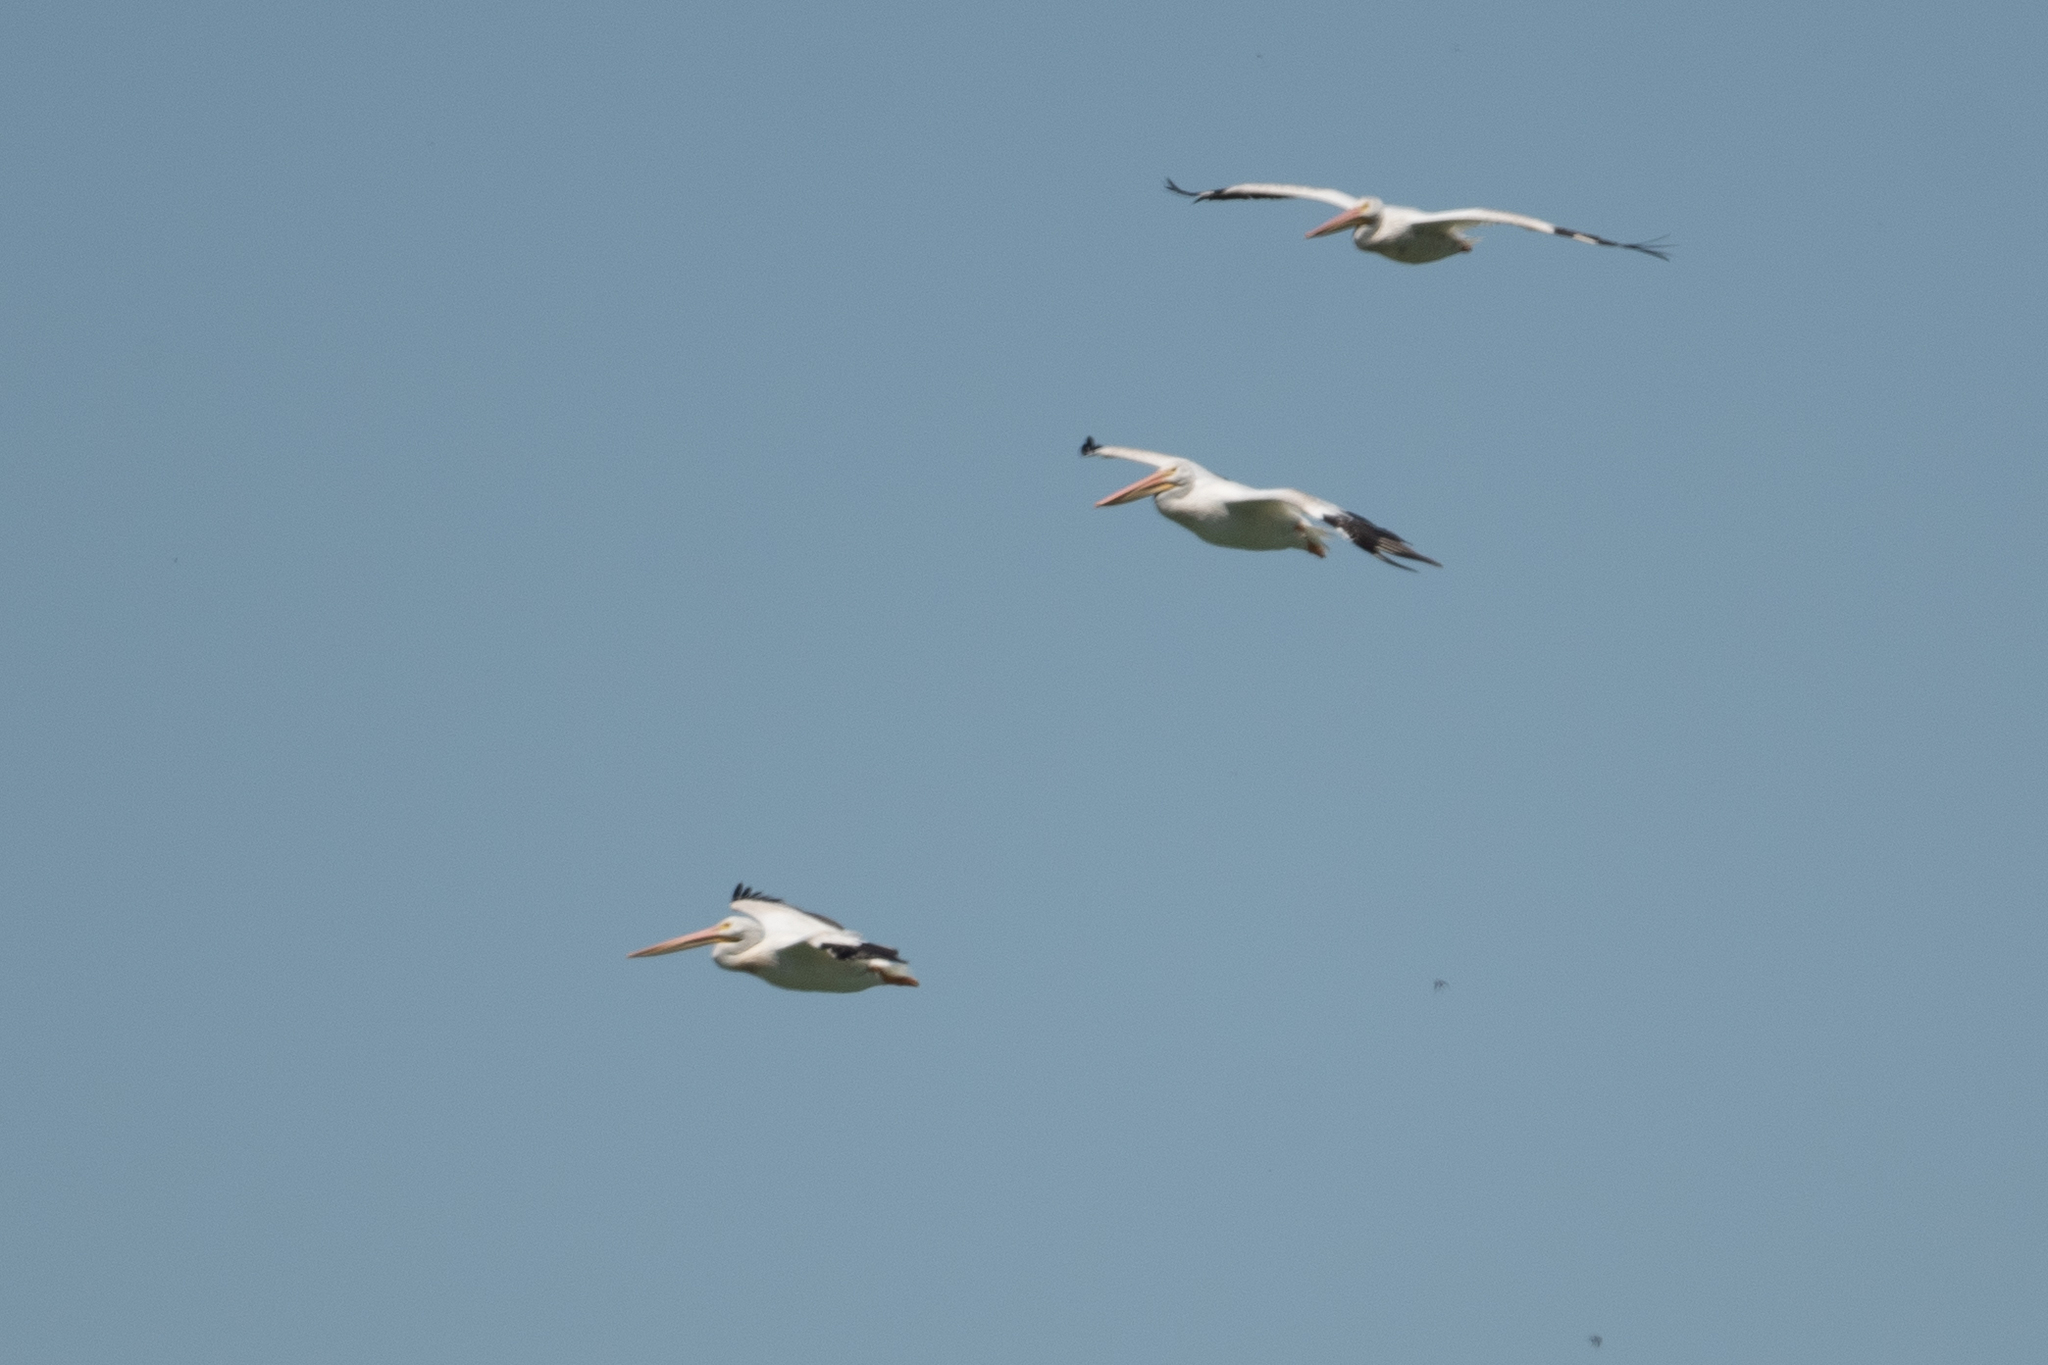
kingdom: Animalia
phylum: Chordata
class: Aves
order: Pelecaniformes
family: Pelecanidae
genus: Pelecanus
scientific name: Pelecanus erythrorhynchos
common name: American white pelican
